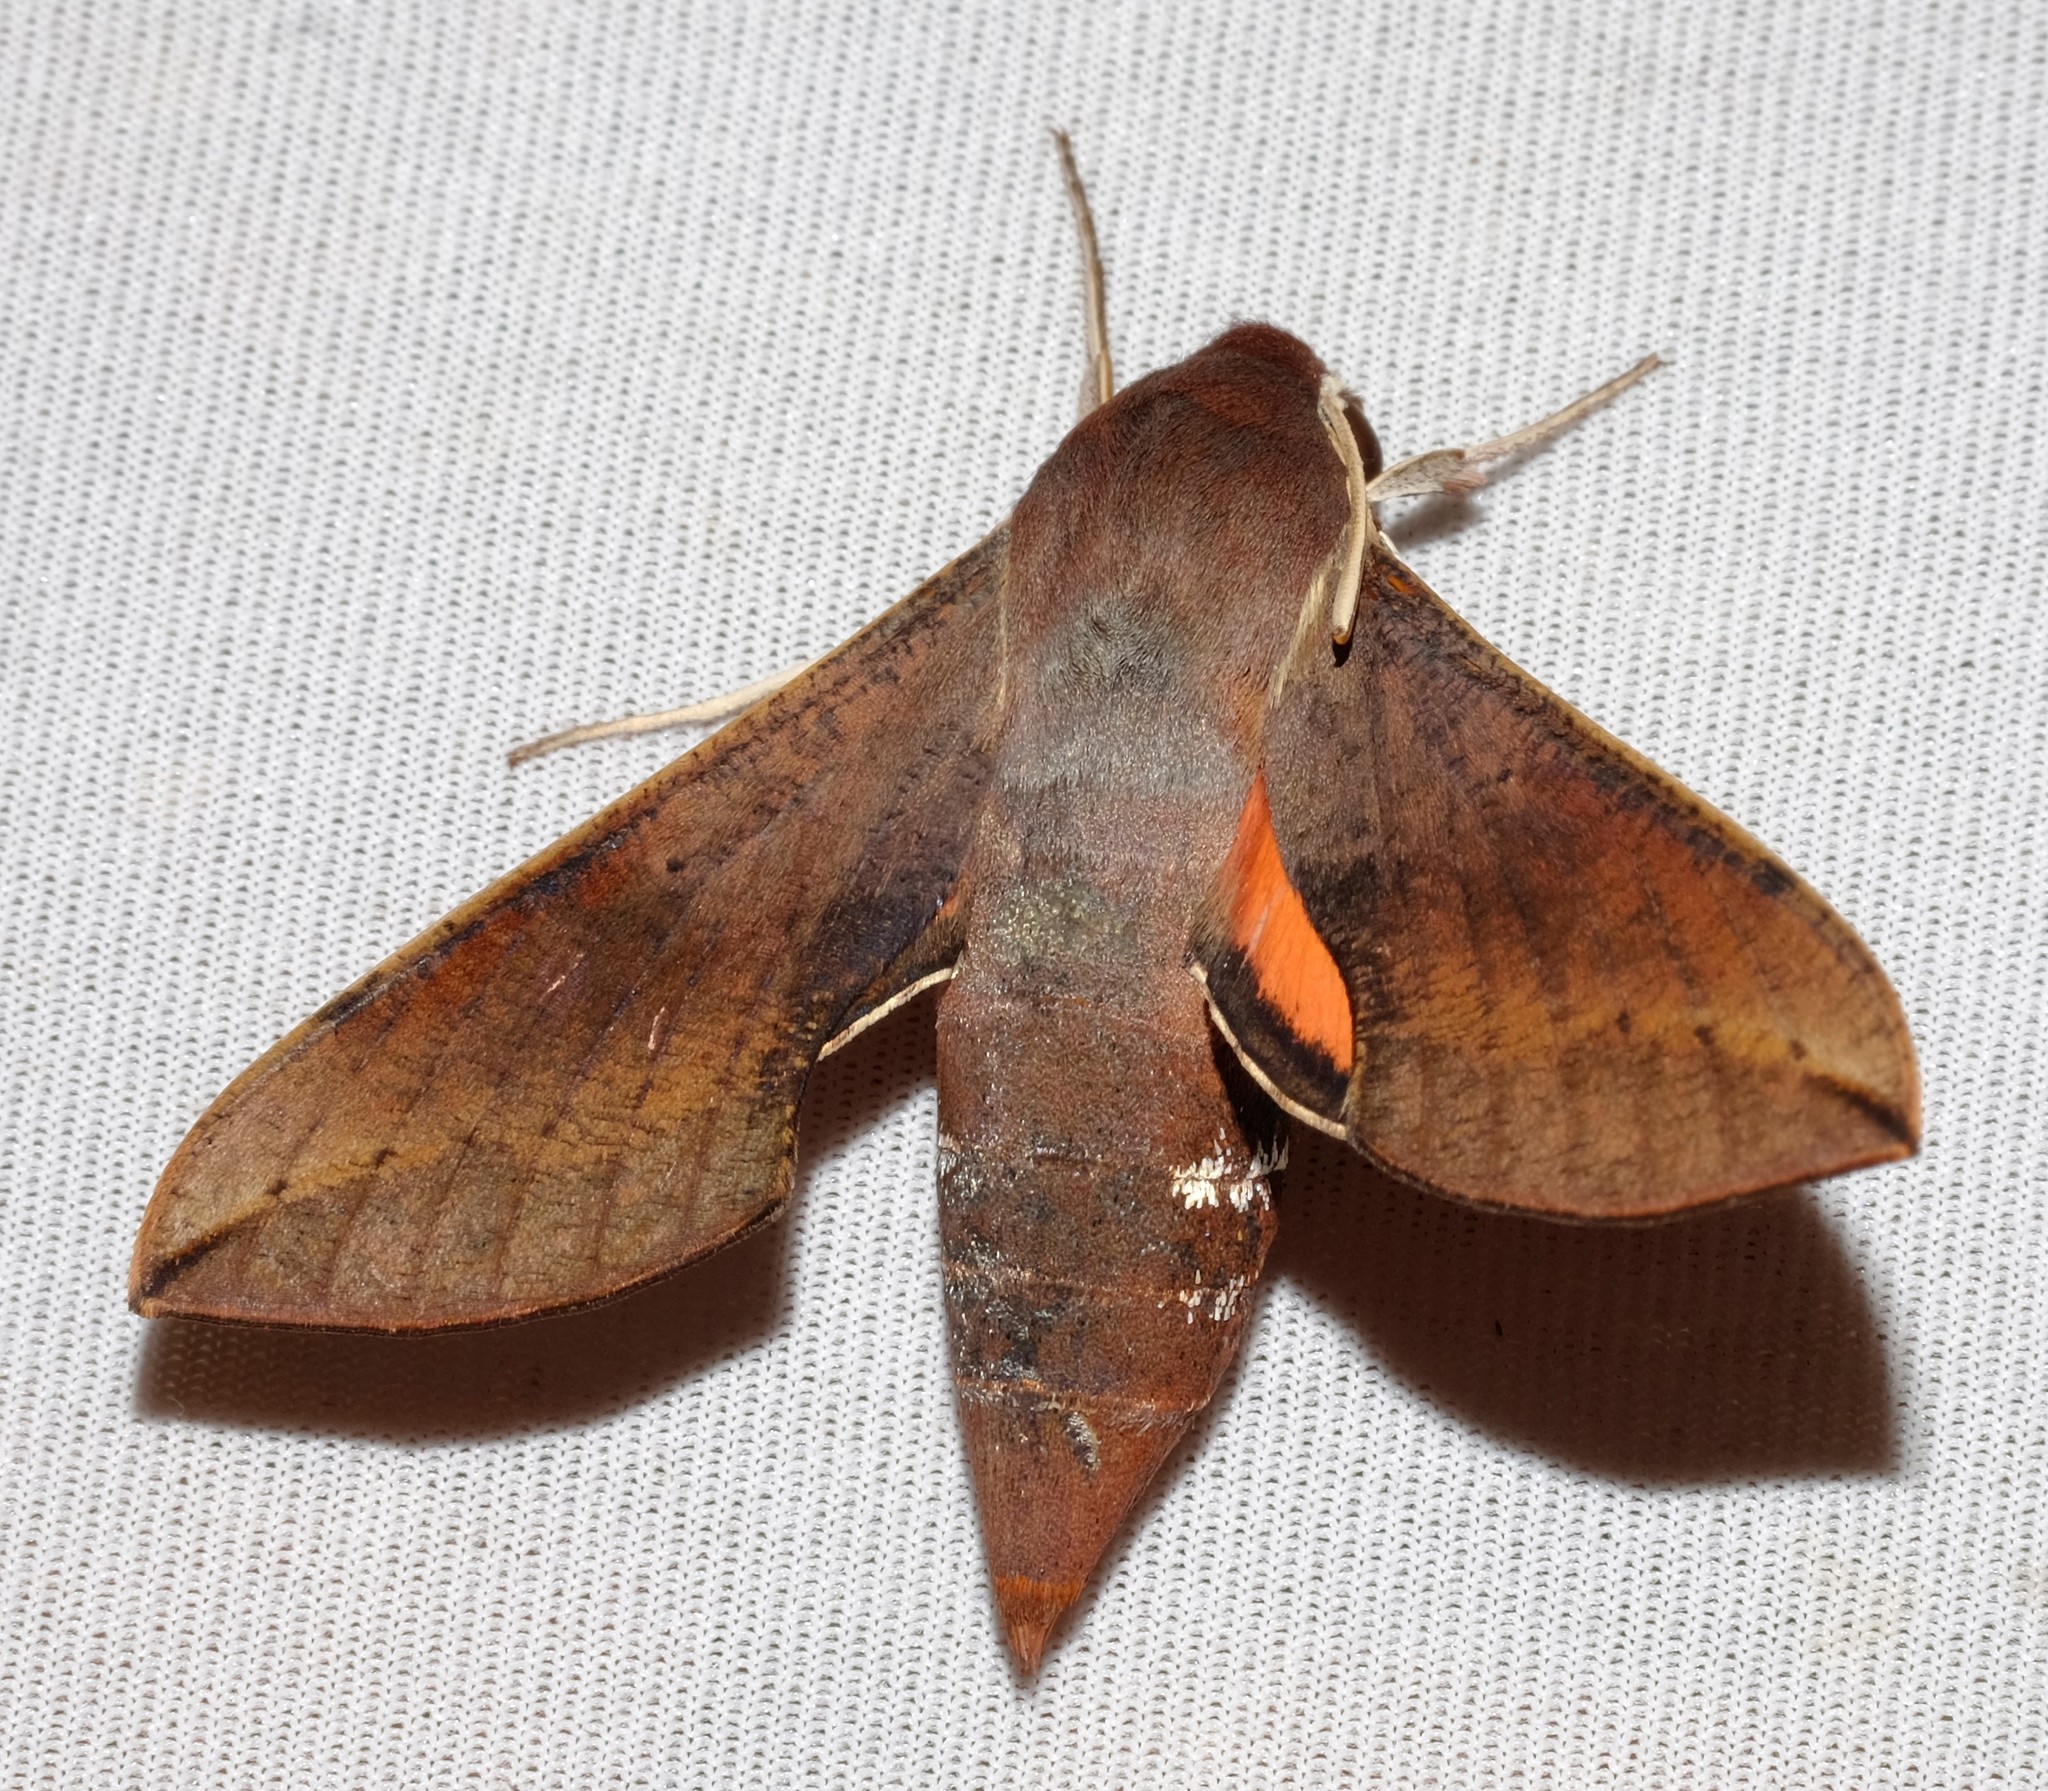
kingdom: Animalia
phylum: Arthropoda
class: Insecta
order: Lepidoptera
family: Sphingidae
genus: Hippotion
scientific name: Hippotion scrofa
